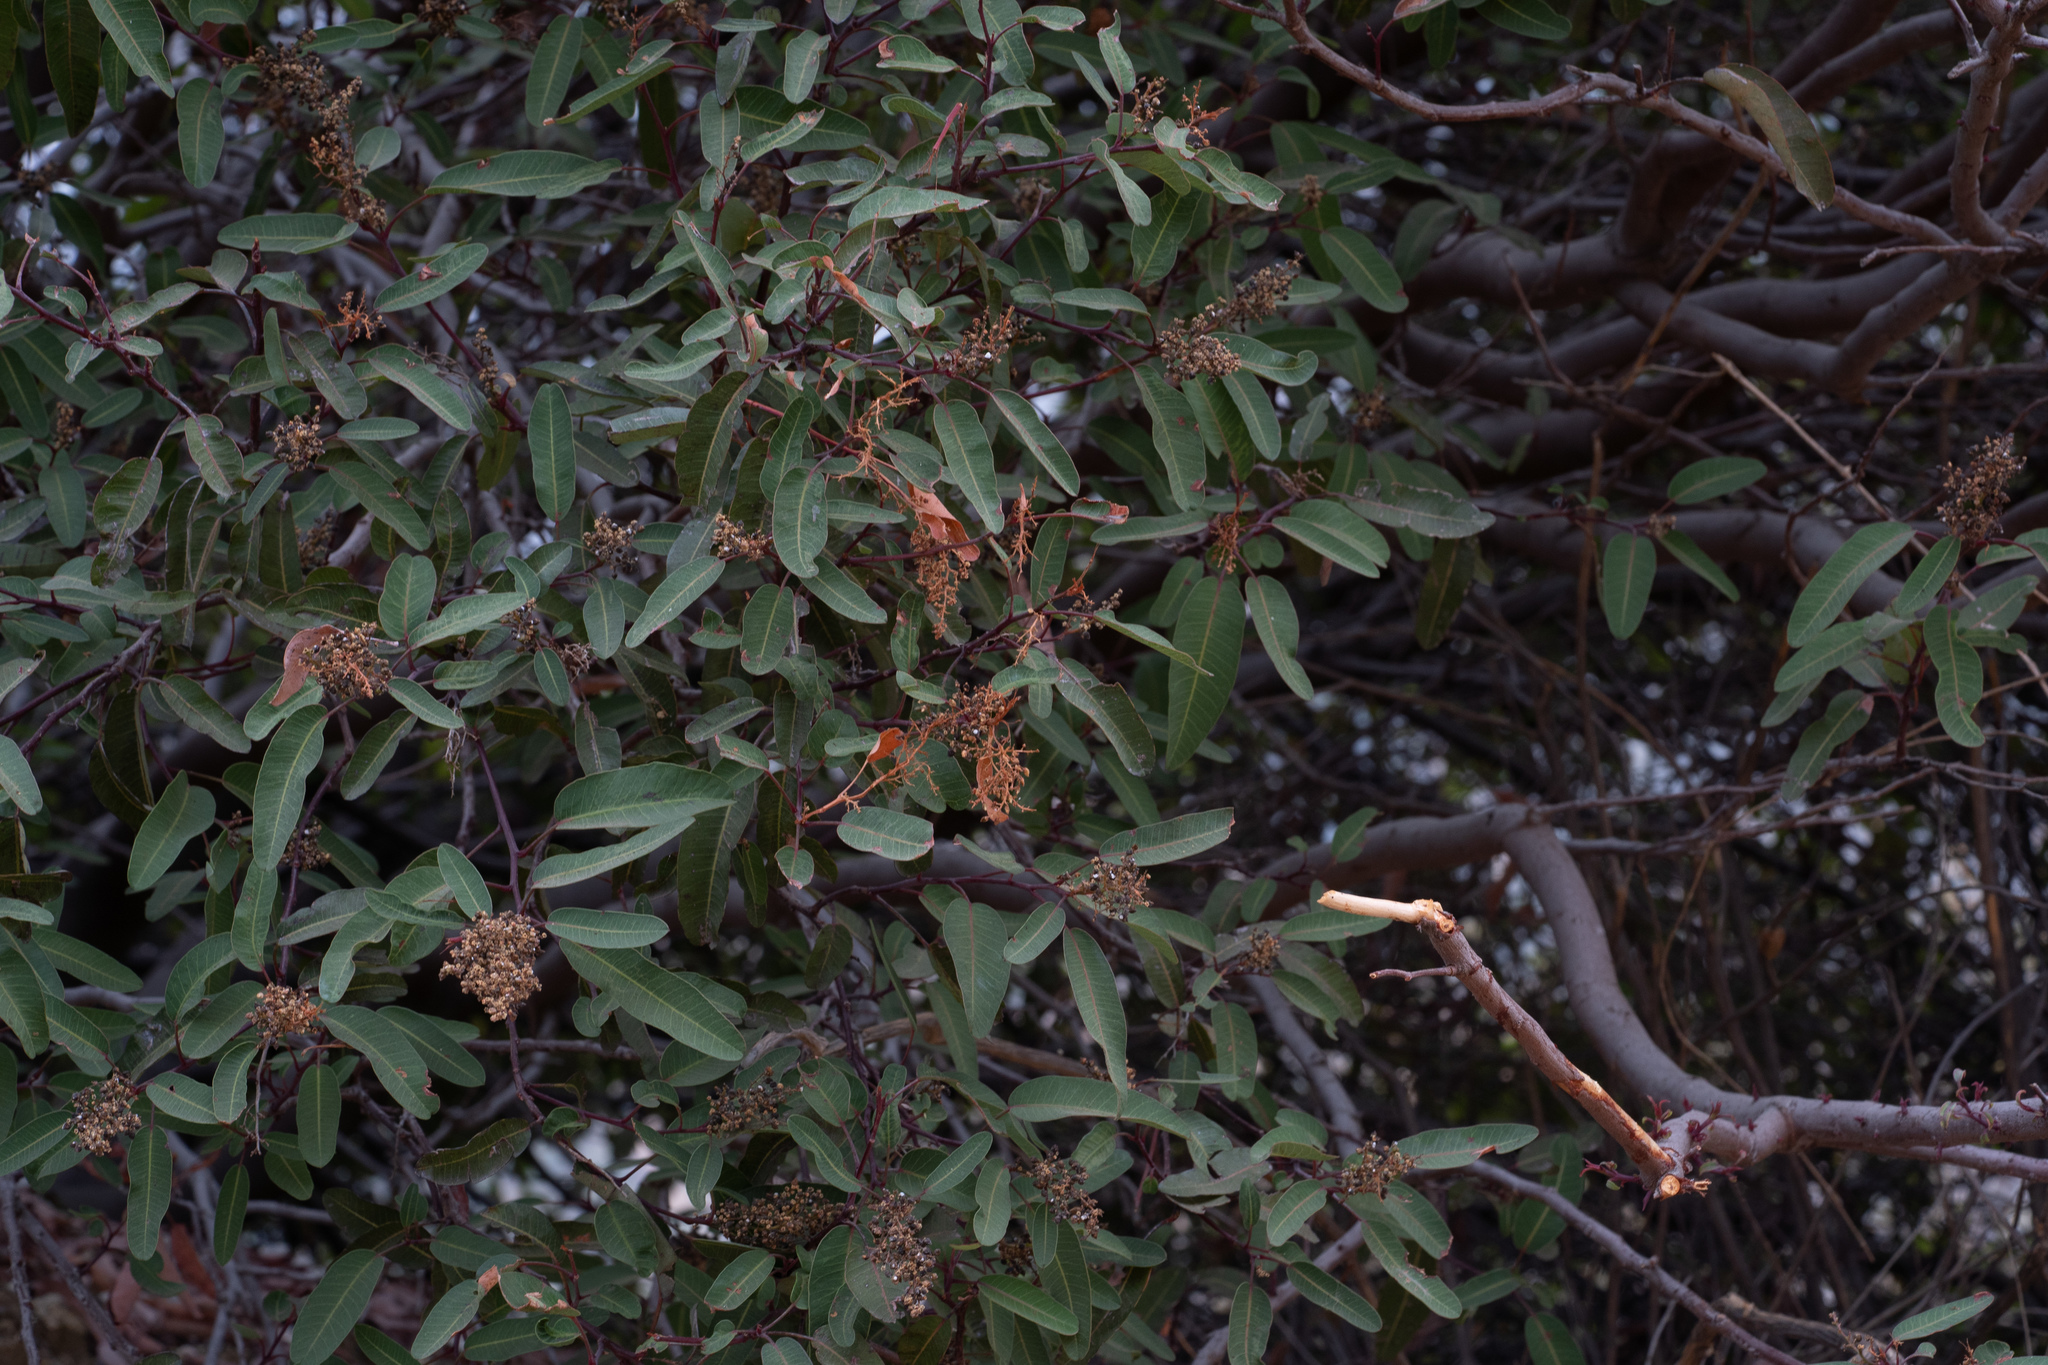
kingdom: Plantae
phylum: Tracheophyta
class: Magnoliopsida
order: Sapindales
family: Anacardiaceae
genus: Malosma
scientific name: Malosma laurina
